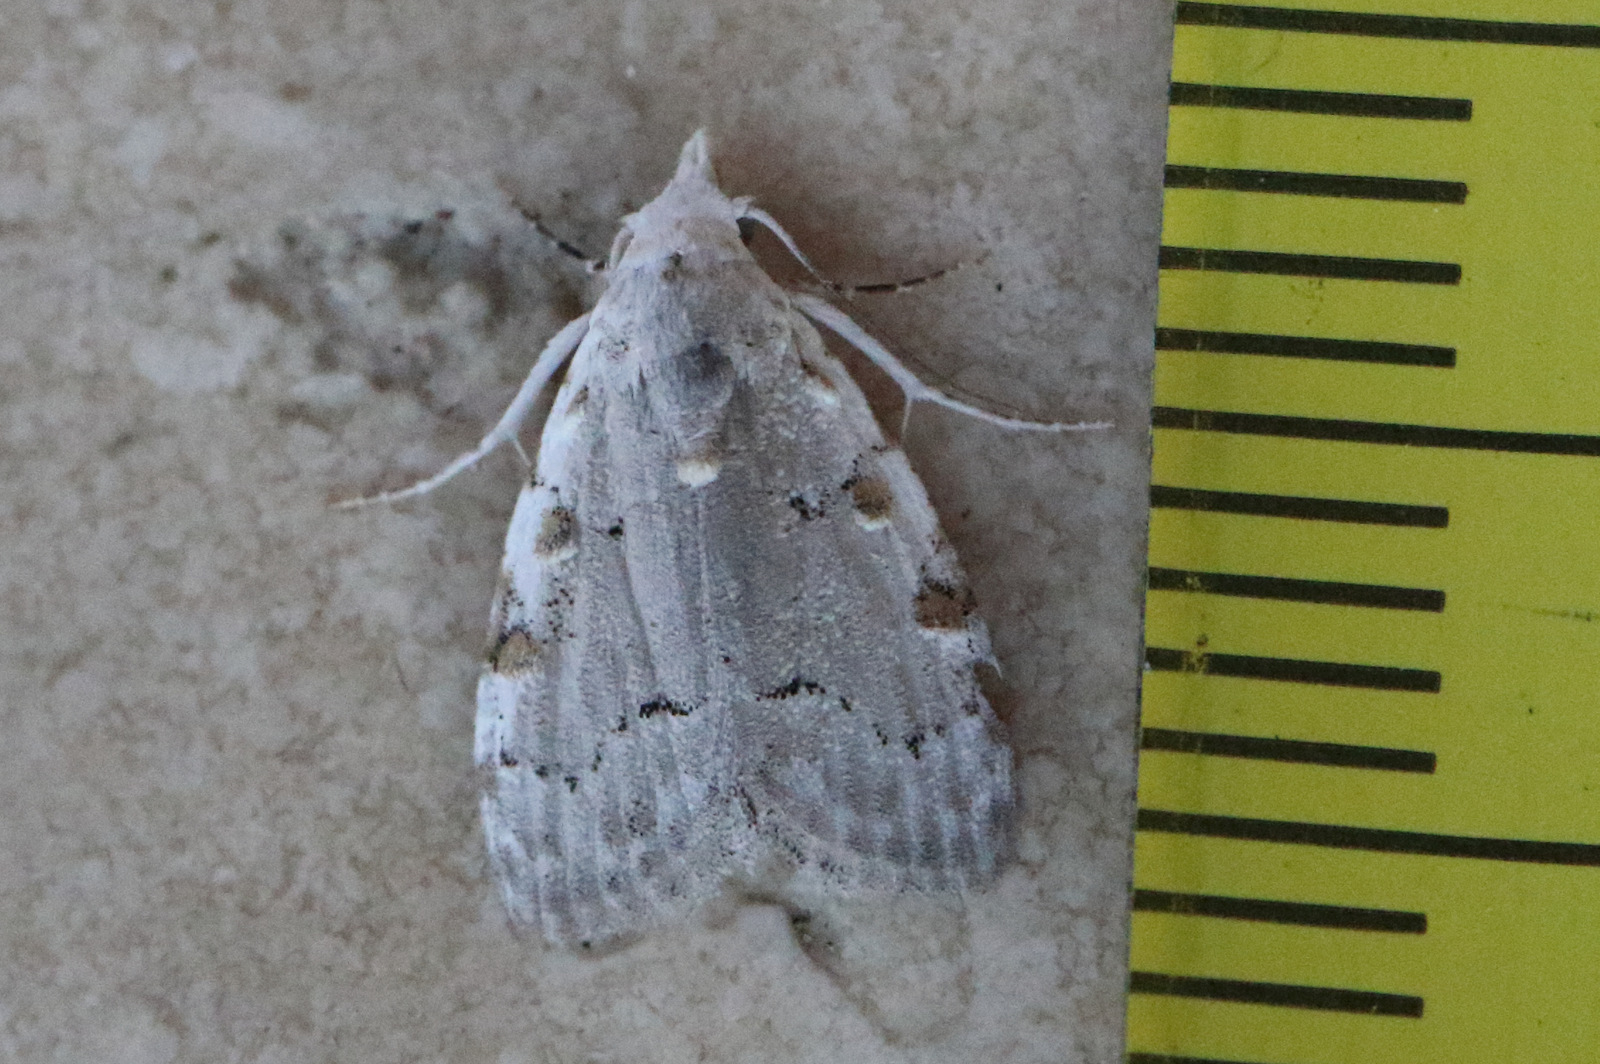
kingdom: Animalia
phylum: Arthropoda
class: Insecta
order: Lepidoptera
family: Nolidae
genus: Nola
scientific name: Nola argentea
